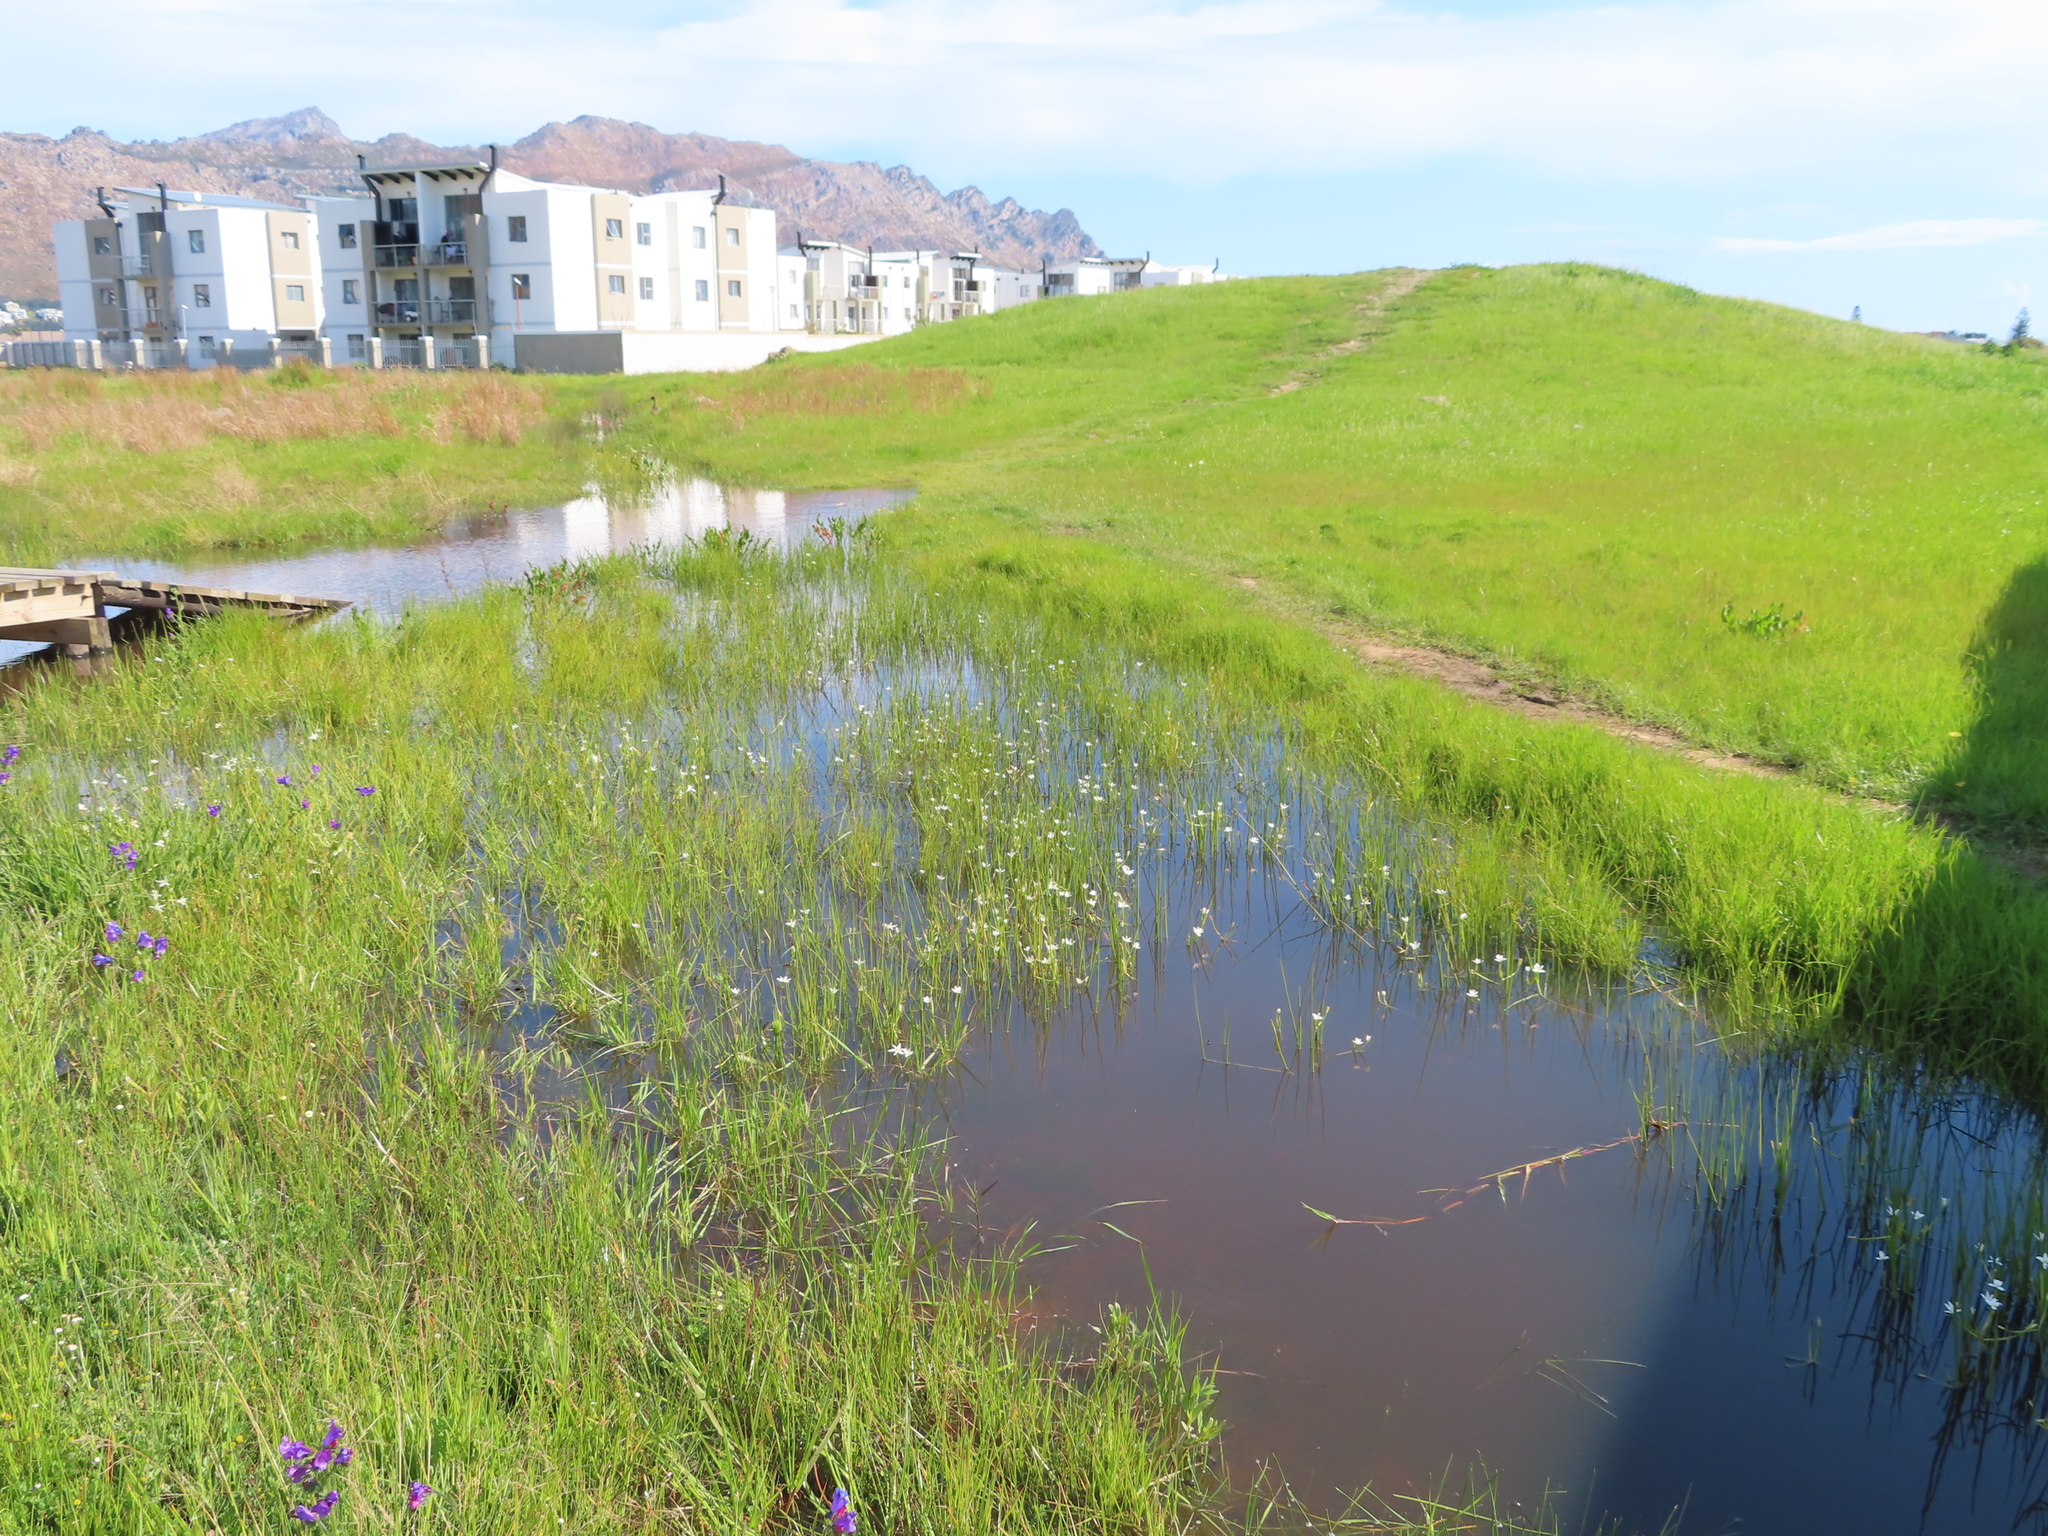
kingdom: Plantae
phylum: Tracheophyta
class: Liliopsida
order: Asparagales
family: Hypoxidaceae
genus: Pauridia
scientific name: Pauridia aquatica
